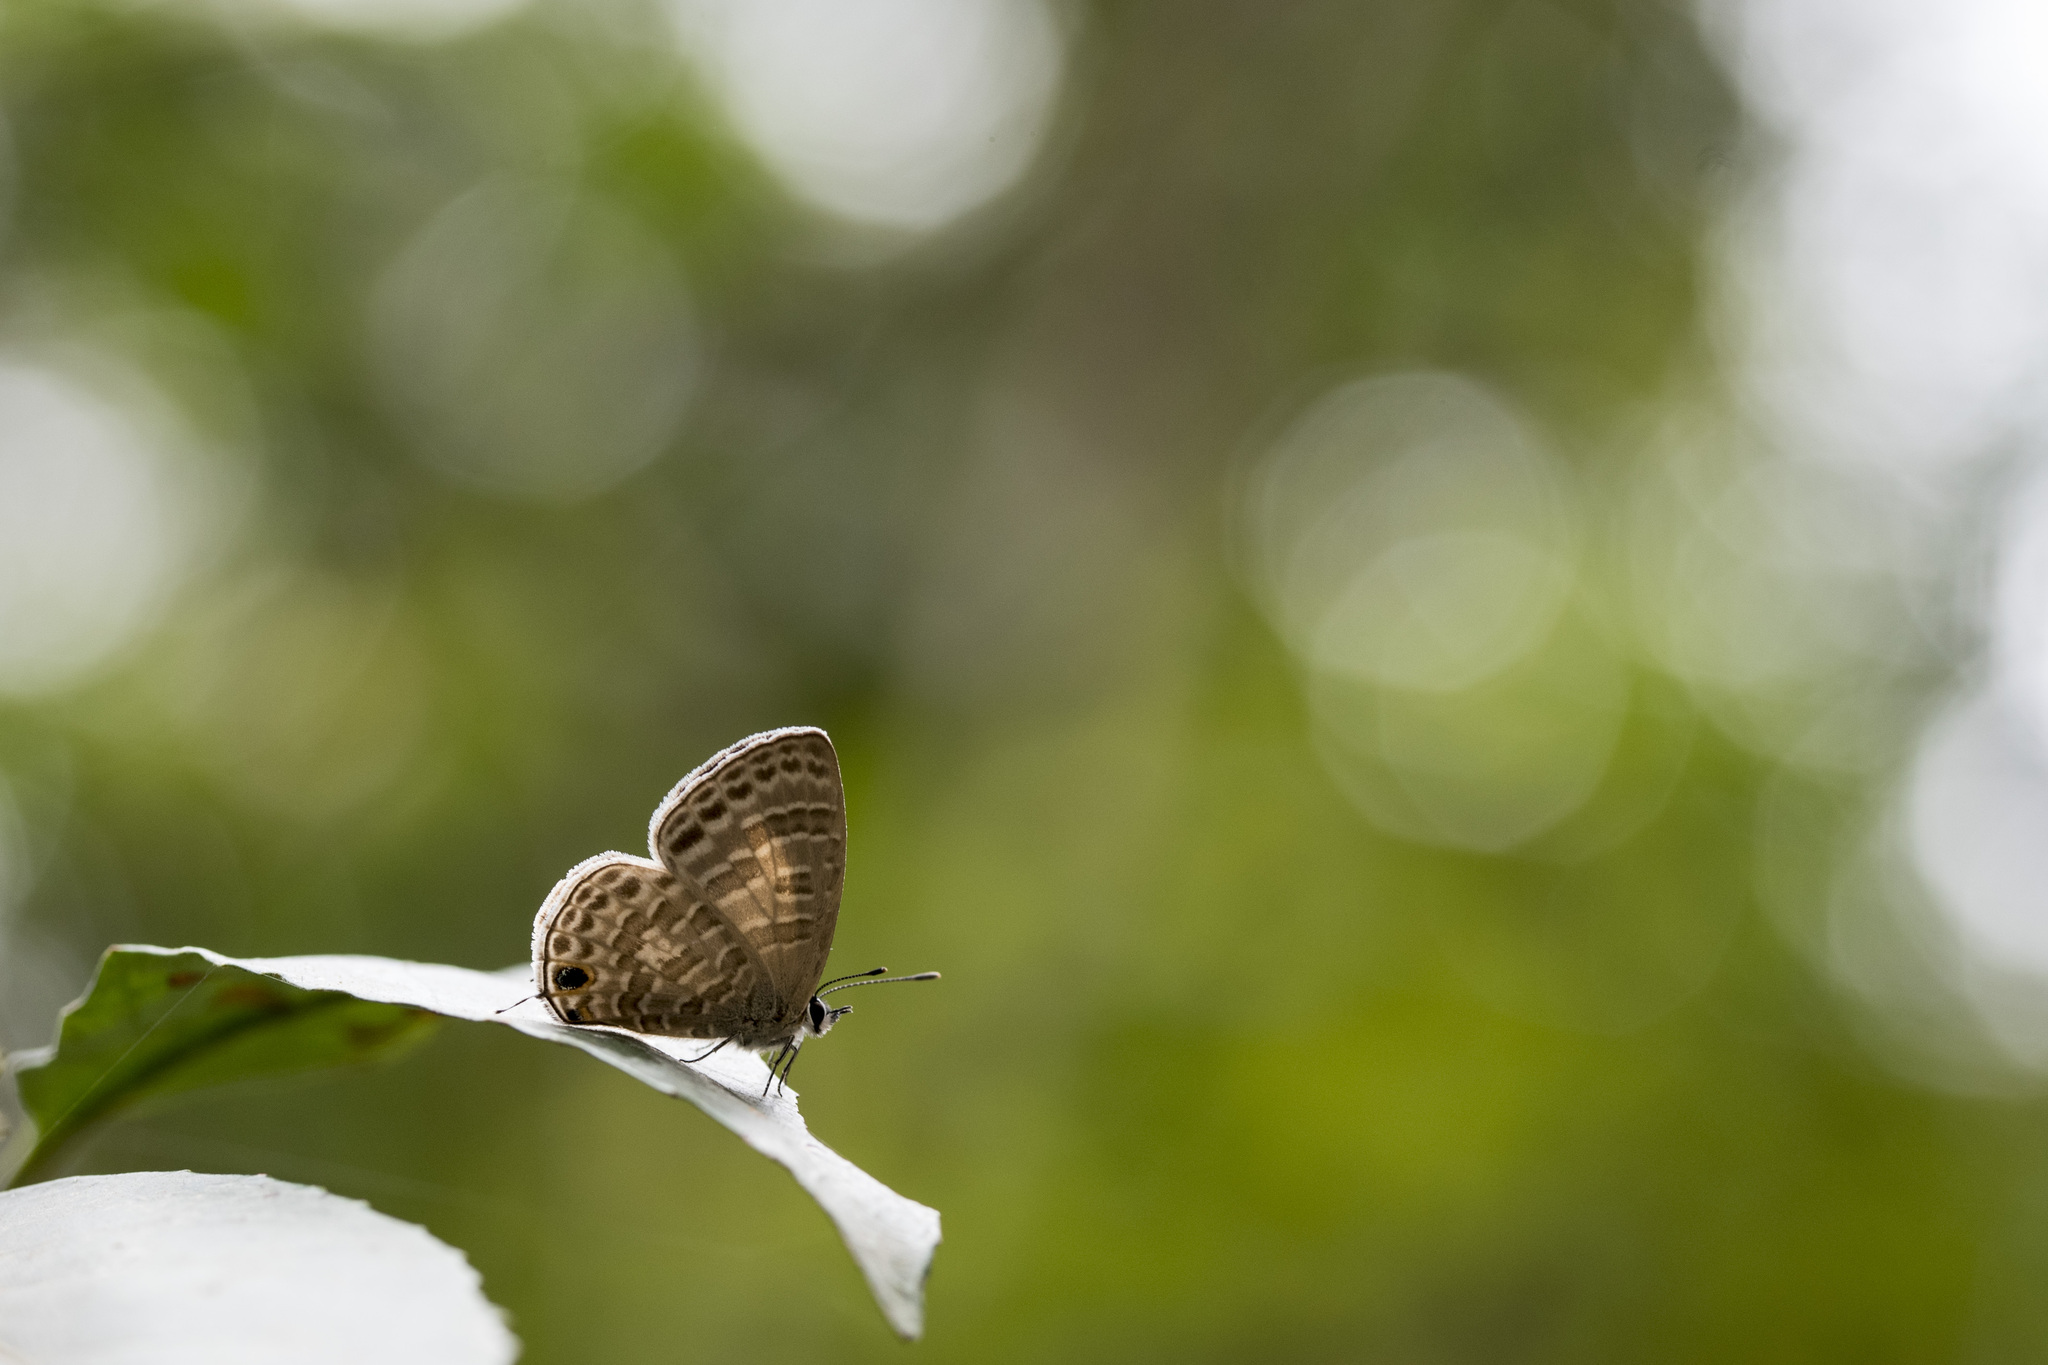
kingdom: Animalia
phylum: Arthropoda
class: Insecta
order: Lepidoptera
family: Lycaenidae
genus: Nacaduba
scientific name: Nacaduba kurava
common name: Transparent 6-line blue
